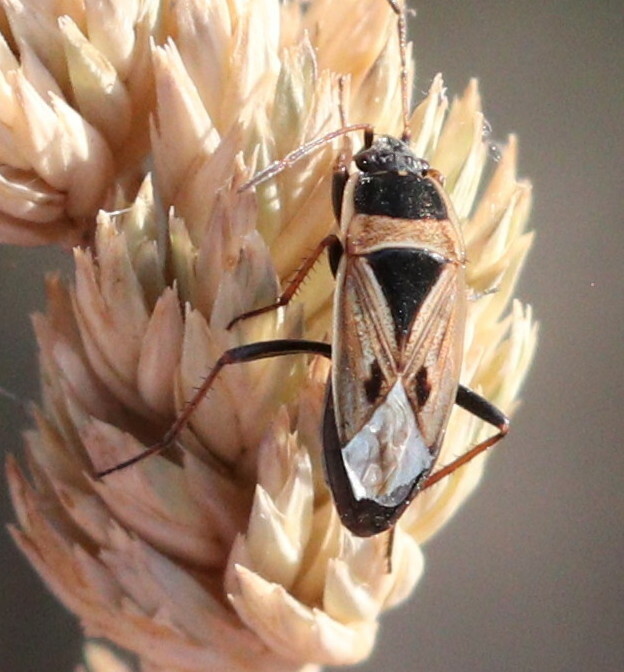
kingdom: Animalia
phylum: Arthropoda
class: Insecta
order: Hemiptera
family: Rhyparochromidae
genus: Xanthochilus
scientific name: Xanthochilus quadratus
